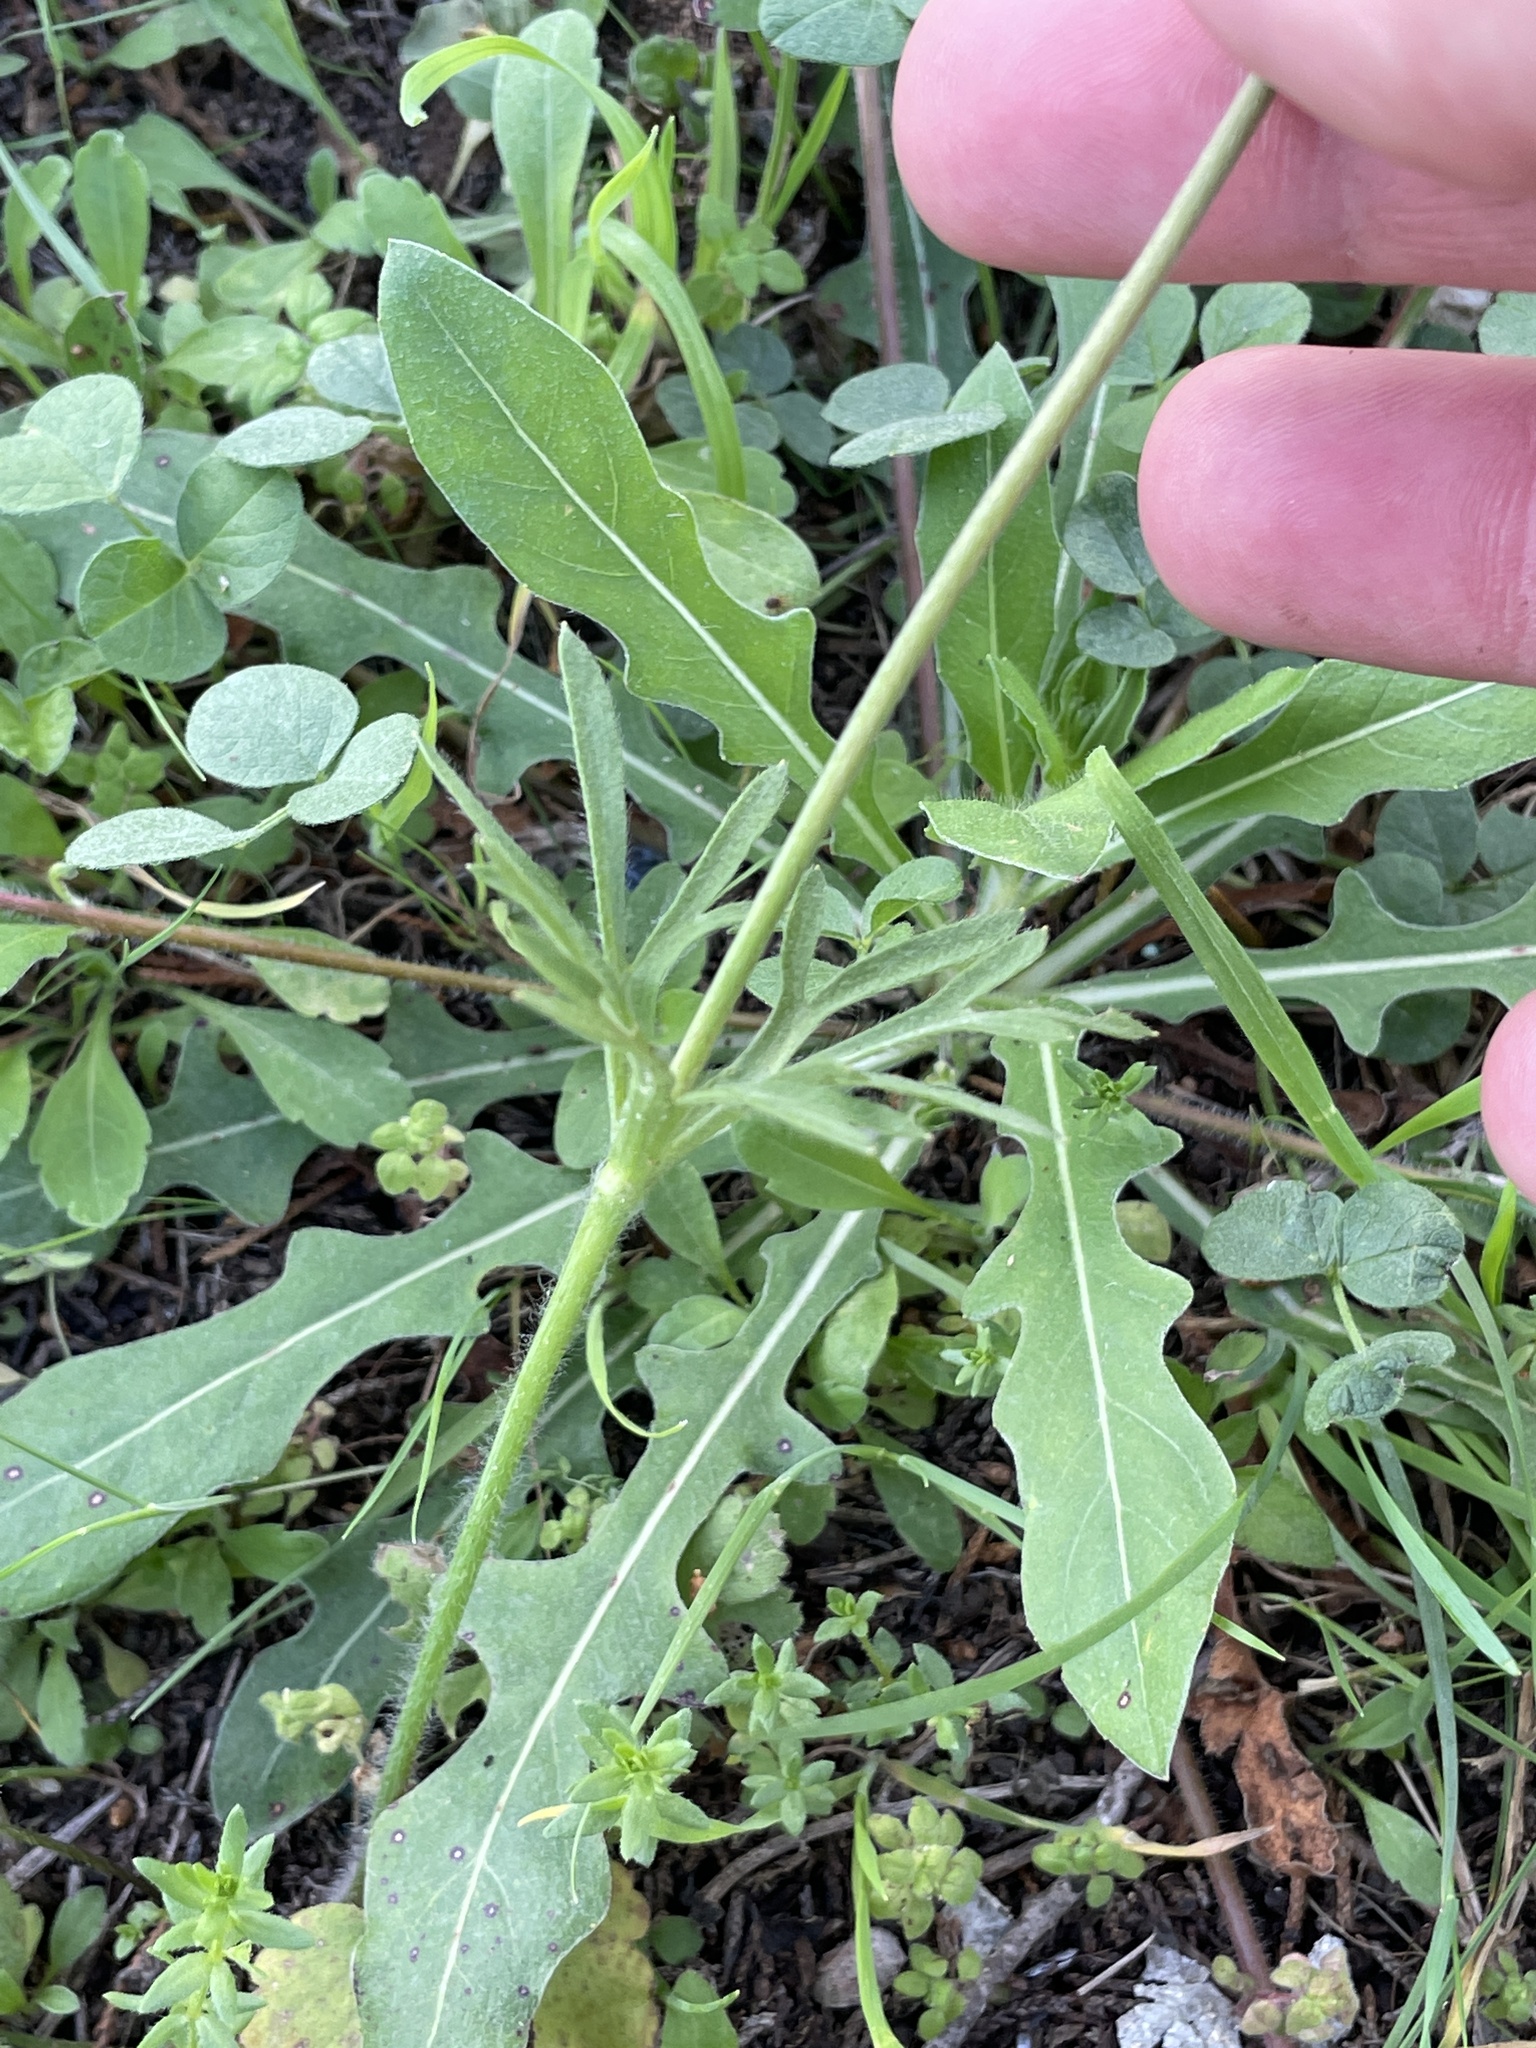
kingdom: Plantae
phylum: Tracheophyta
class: Magnoliopsida
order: Ranunculales
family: Ranunculaceae
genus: Anemone
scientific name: Anemone berlandieri
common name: Ten-petal anemone
